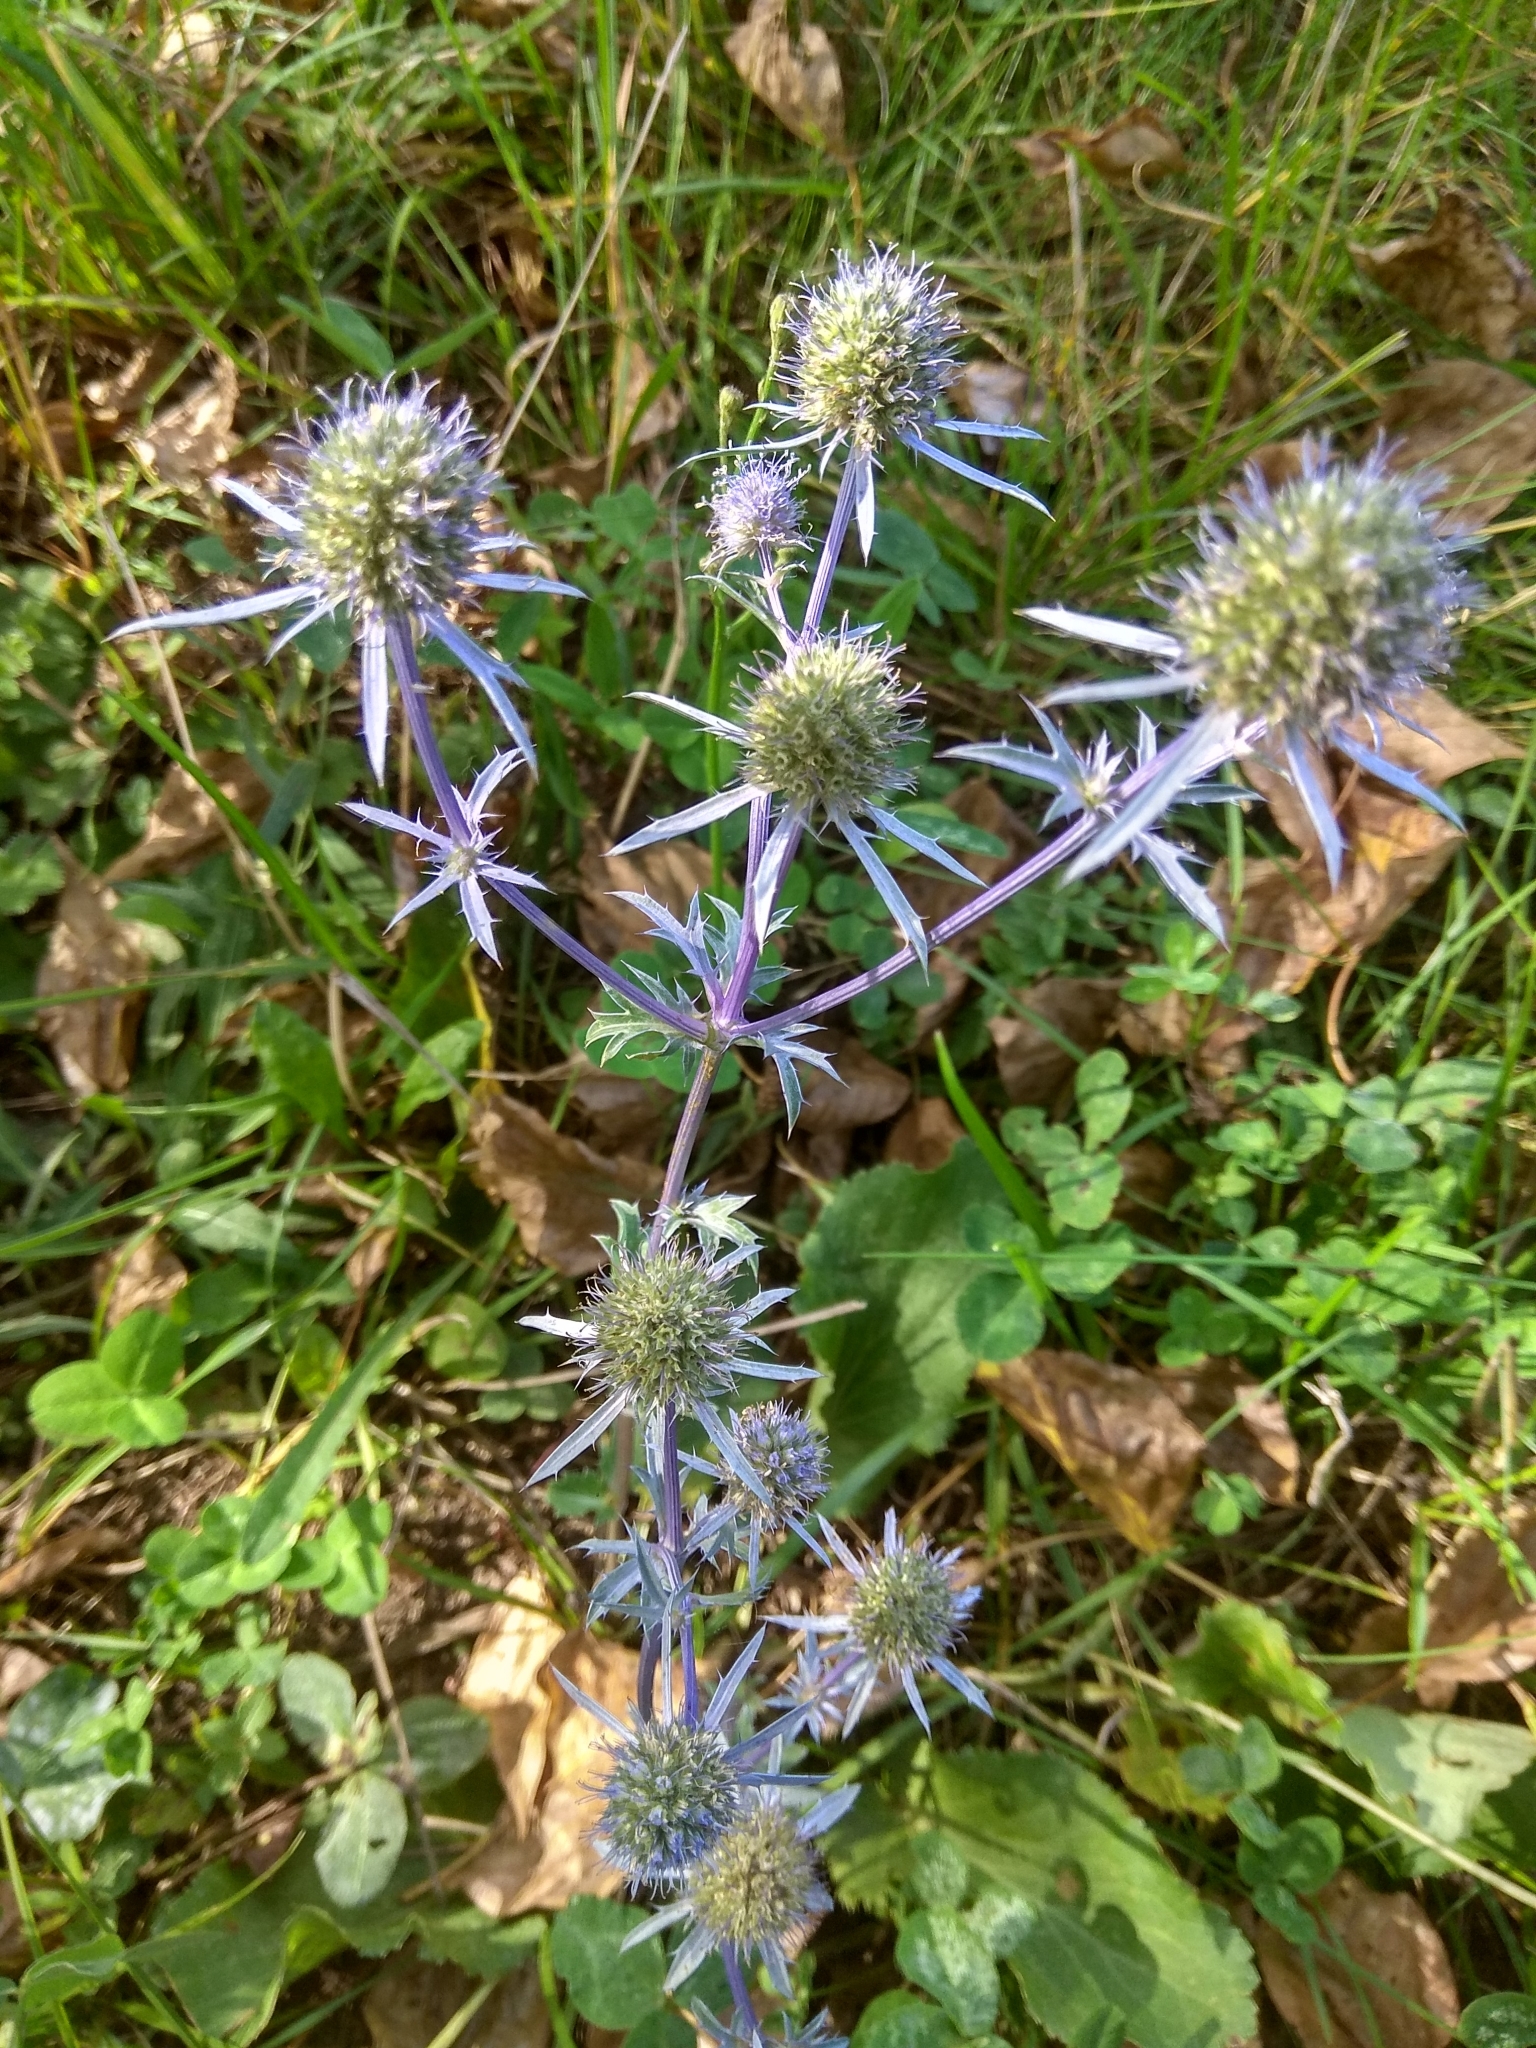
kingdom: Plantae
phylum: Tracheophyta
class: Magnoliopsida
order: Apiales
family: Apiaceae
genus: Eryngium
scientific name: Eryngium planum
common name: Blue eryngo
